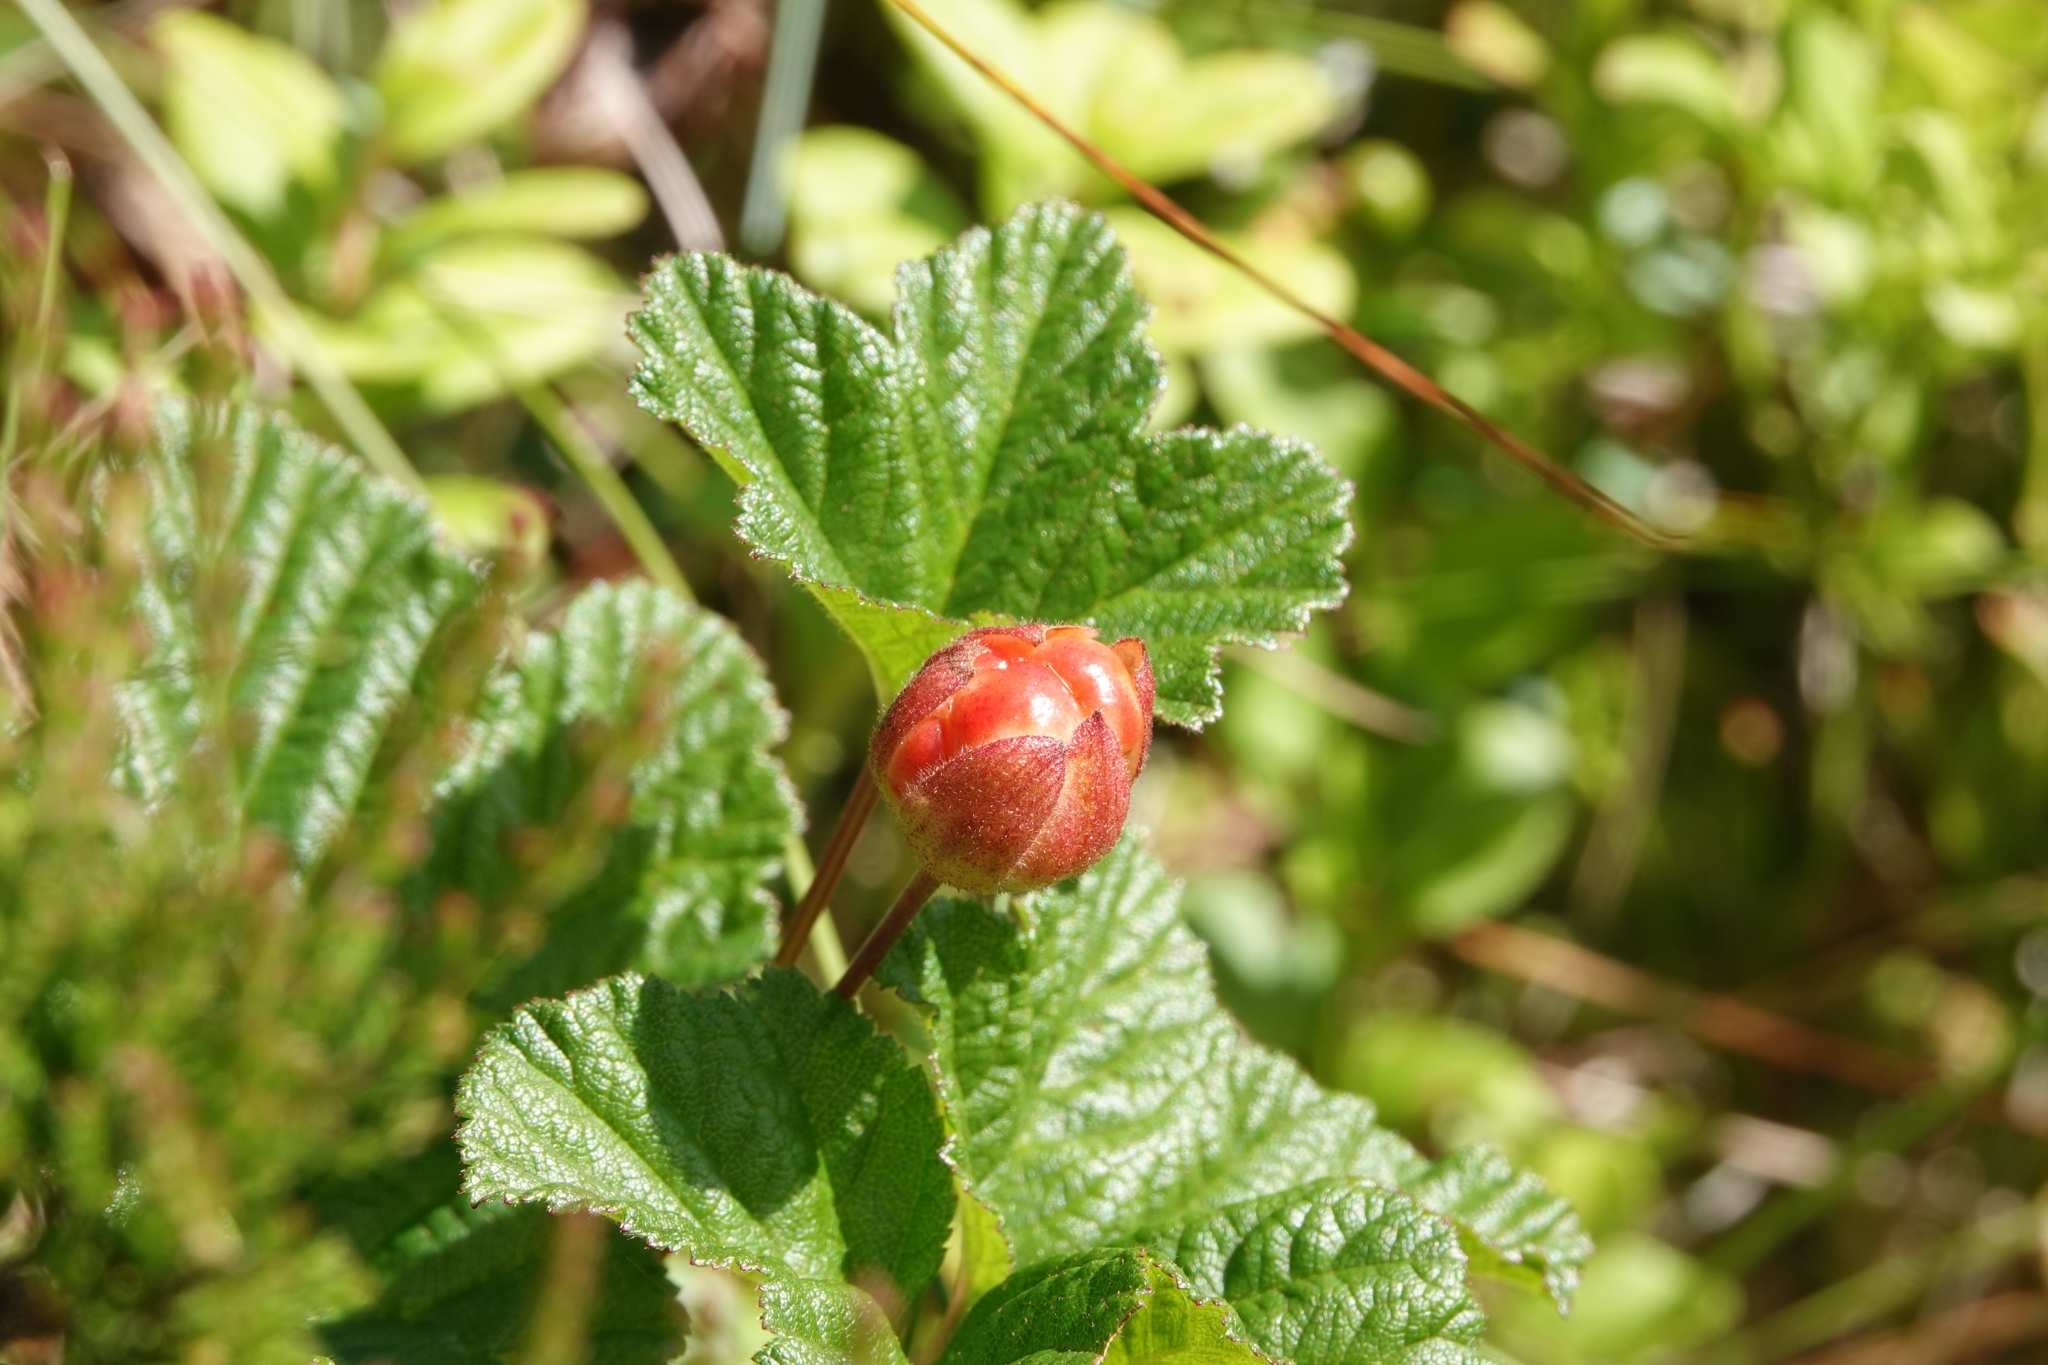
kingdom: Plantae
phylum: Tracheophyta
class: Magnoliopsida
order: Rosales
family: Rosaceae
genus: Rubus
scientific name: Rubus chamaemorus
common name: Cloudberry
